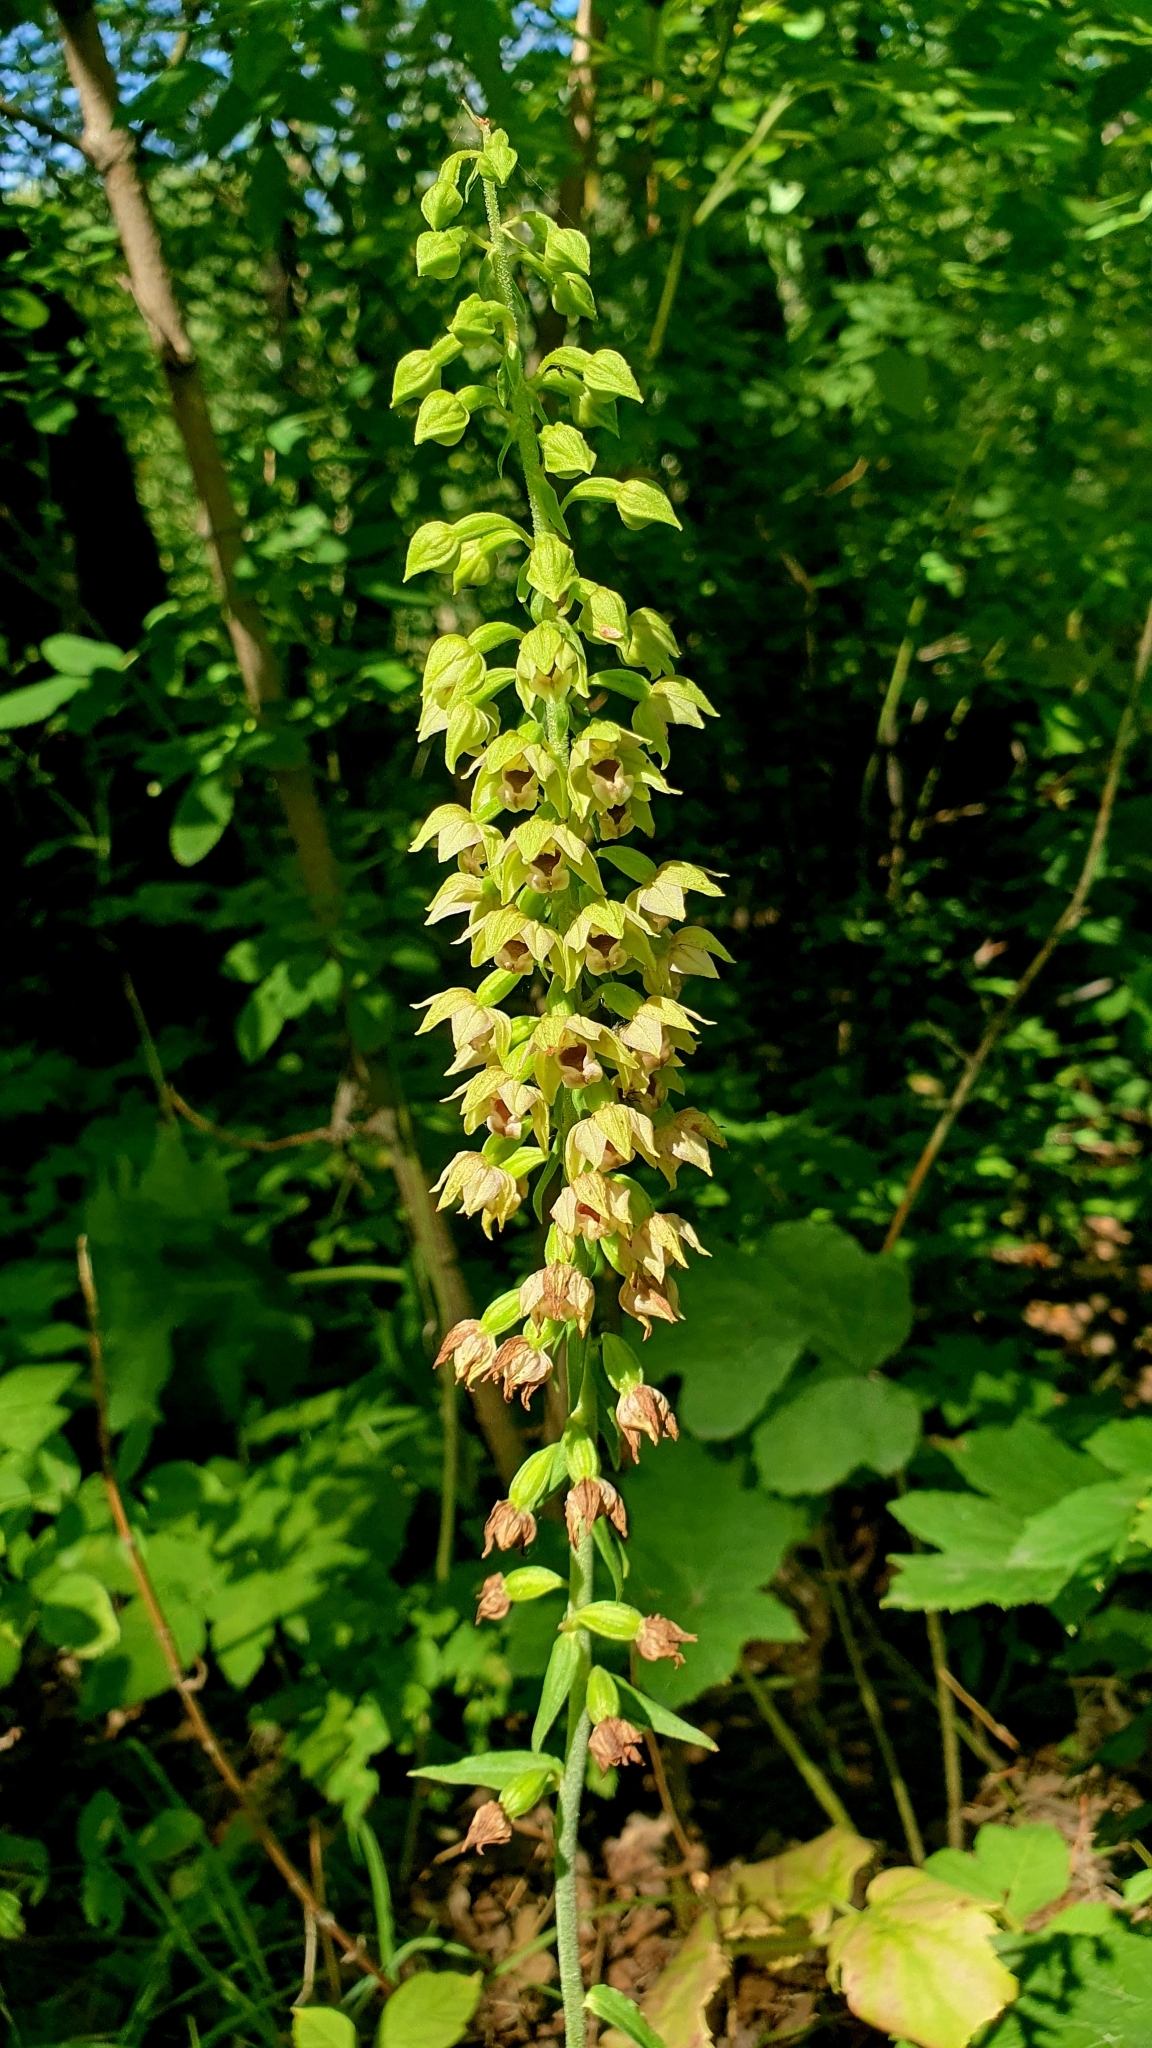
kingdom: Plantae
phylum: Tracheophyta
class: Liliopsida
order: Asparagales
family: Orchidaceae
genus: Epipactis
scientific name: Epipactis helleborine
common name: Broad-leaved helleborine
